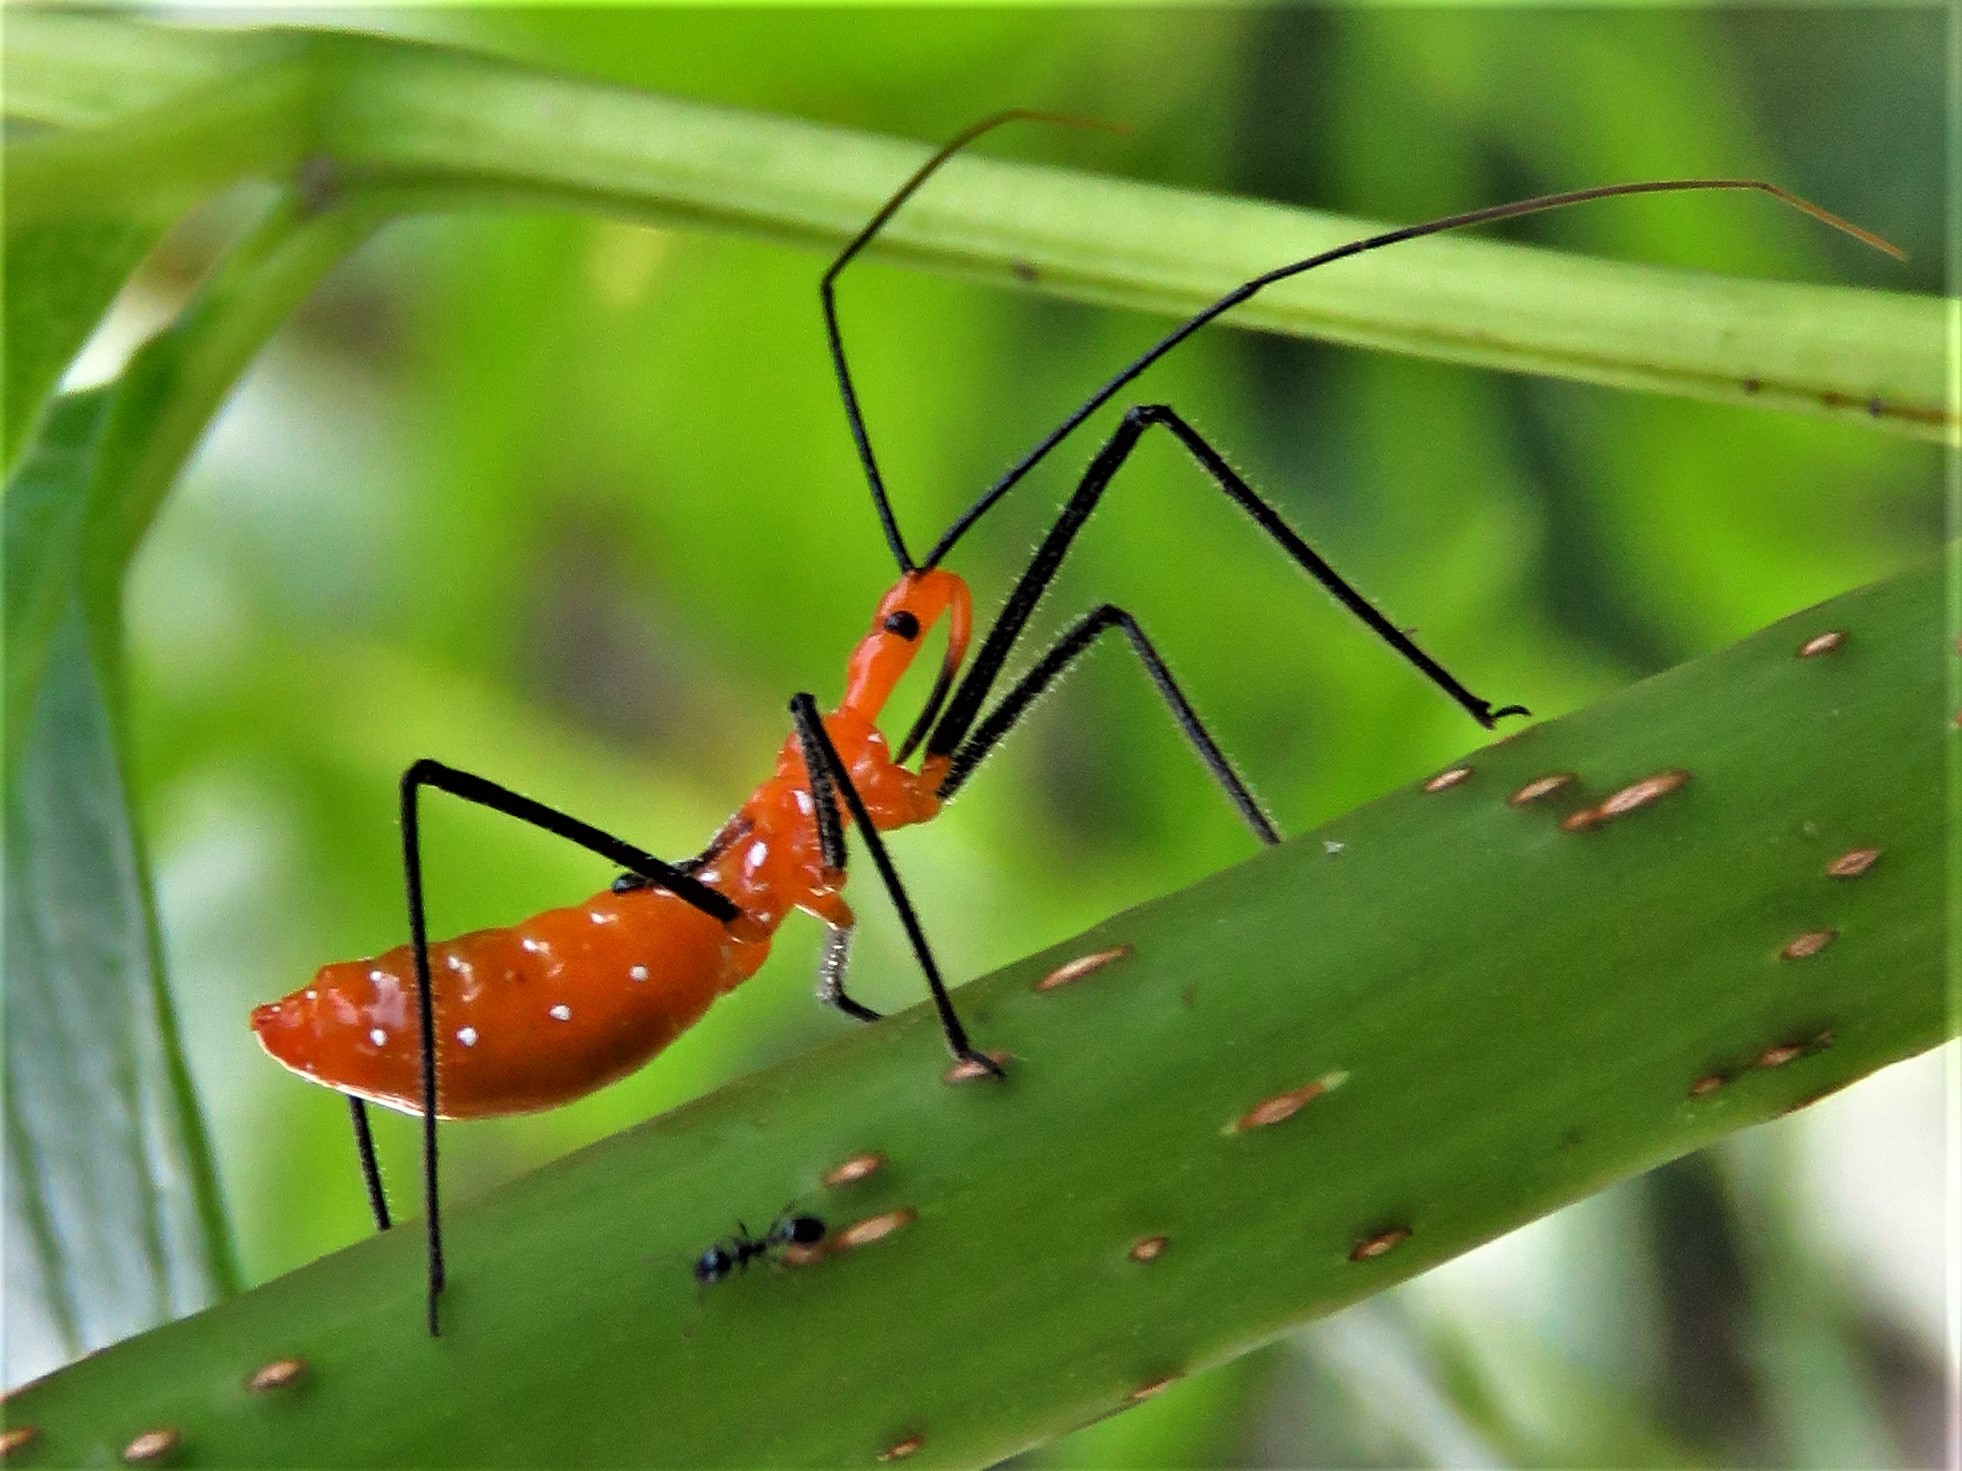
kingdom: Animalia
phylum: Arthropoda
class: Insecta
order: Hemiptera
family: Reduviidae
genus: Zelus
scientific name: Zelus longipes
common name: Milkweed assassin bug
